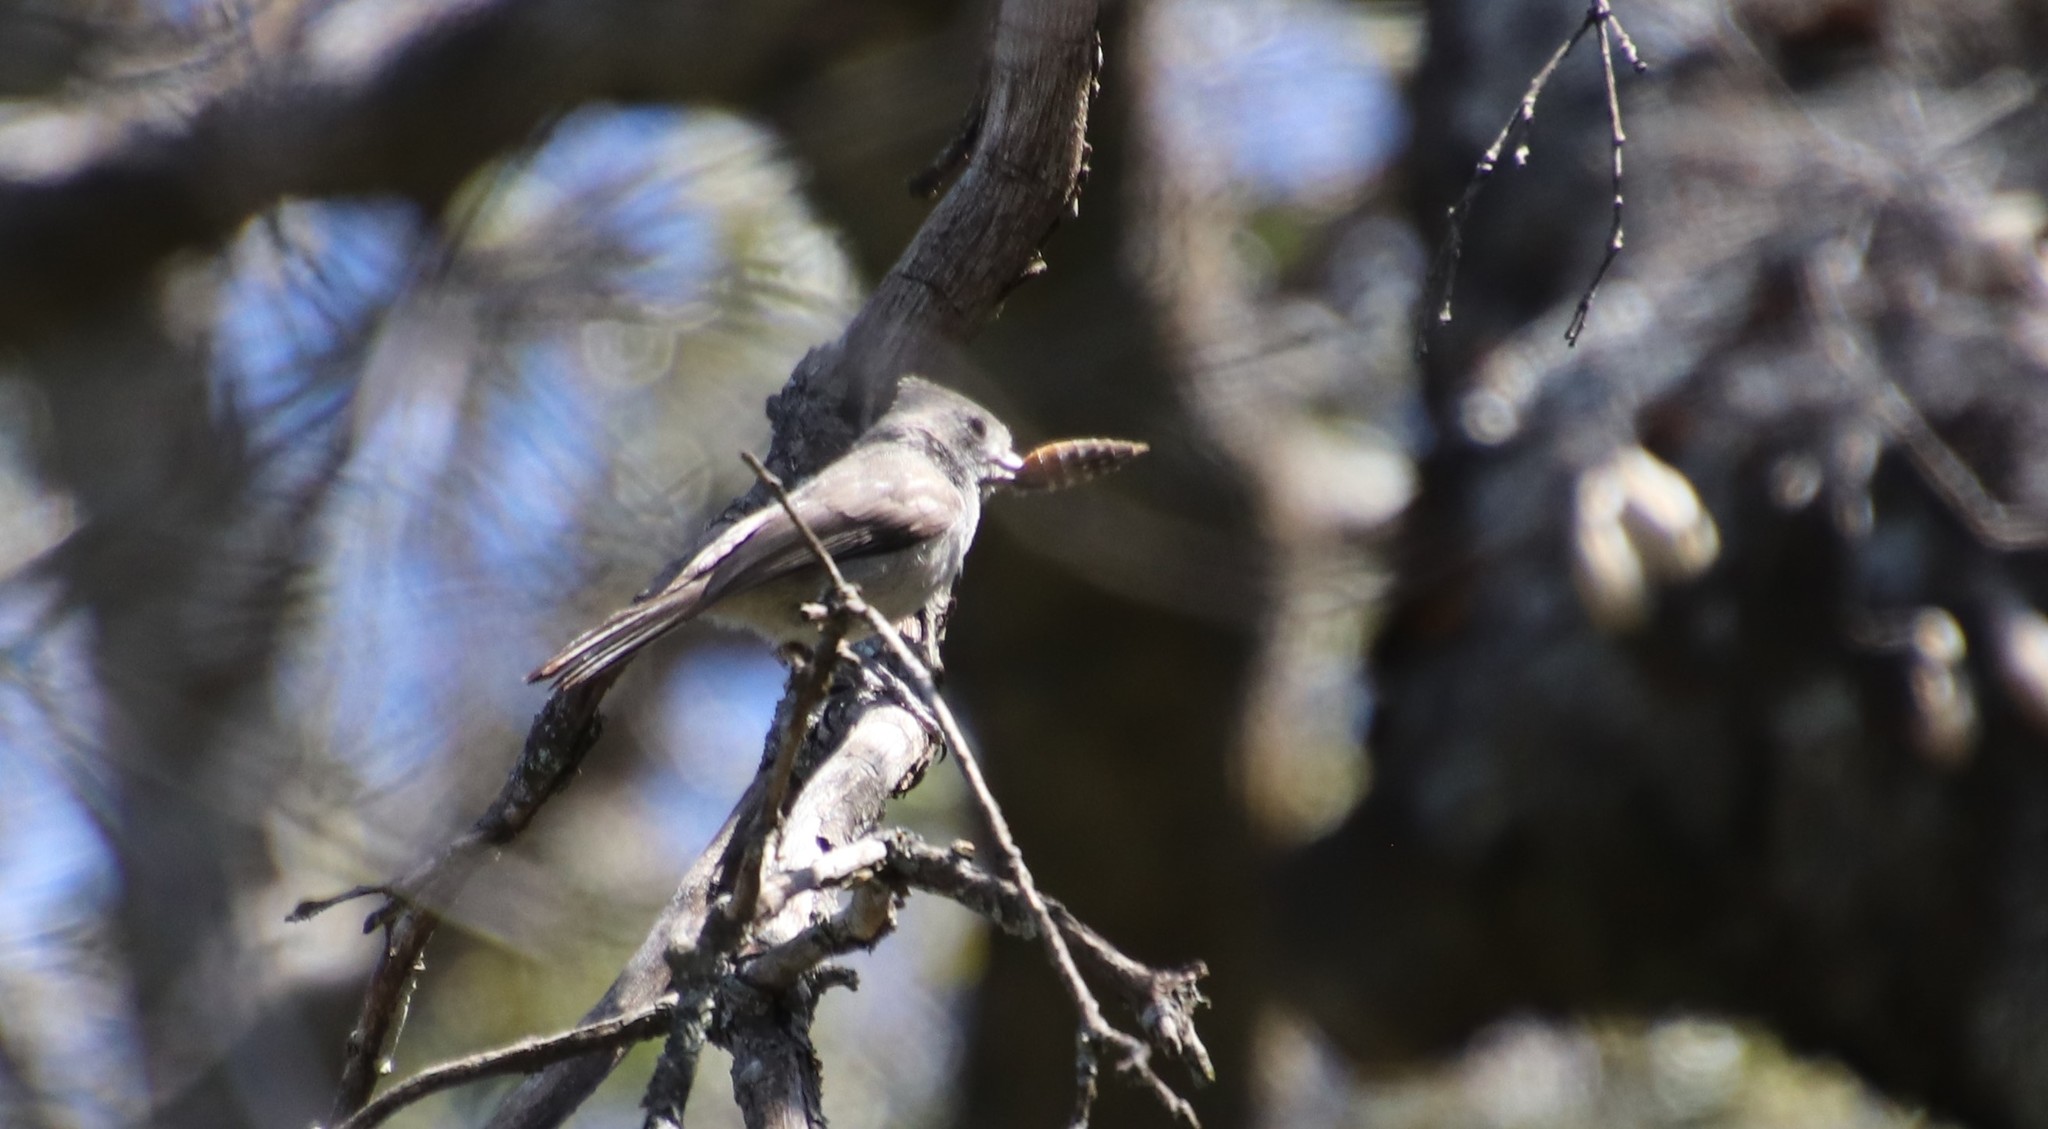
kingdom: Animalia
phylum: Chordata
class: Aves
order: Passeriformes
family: Paridae
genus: Baeolophus
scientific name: Baeolophus inornatus
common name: Oak titmouse
